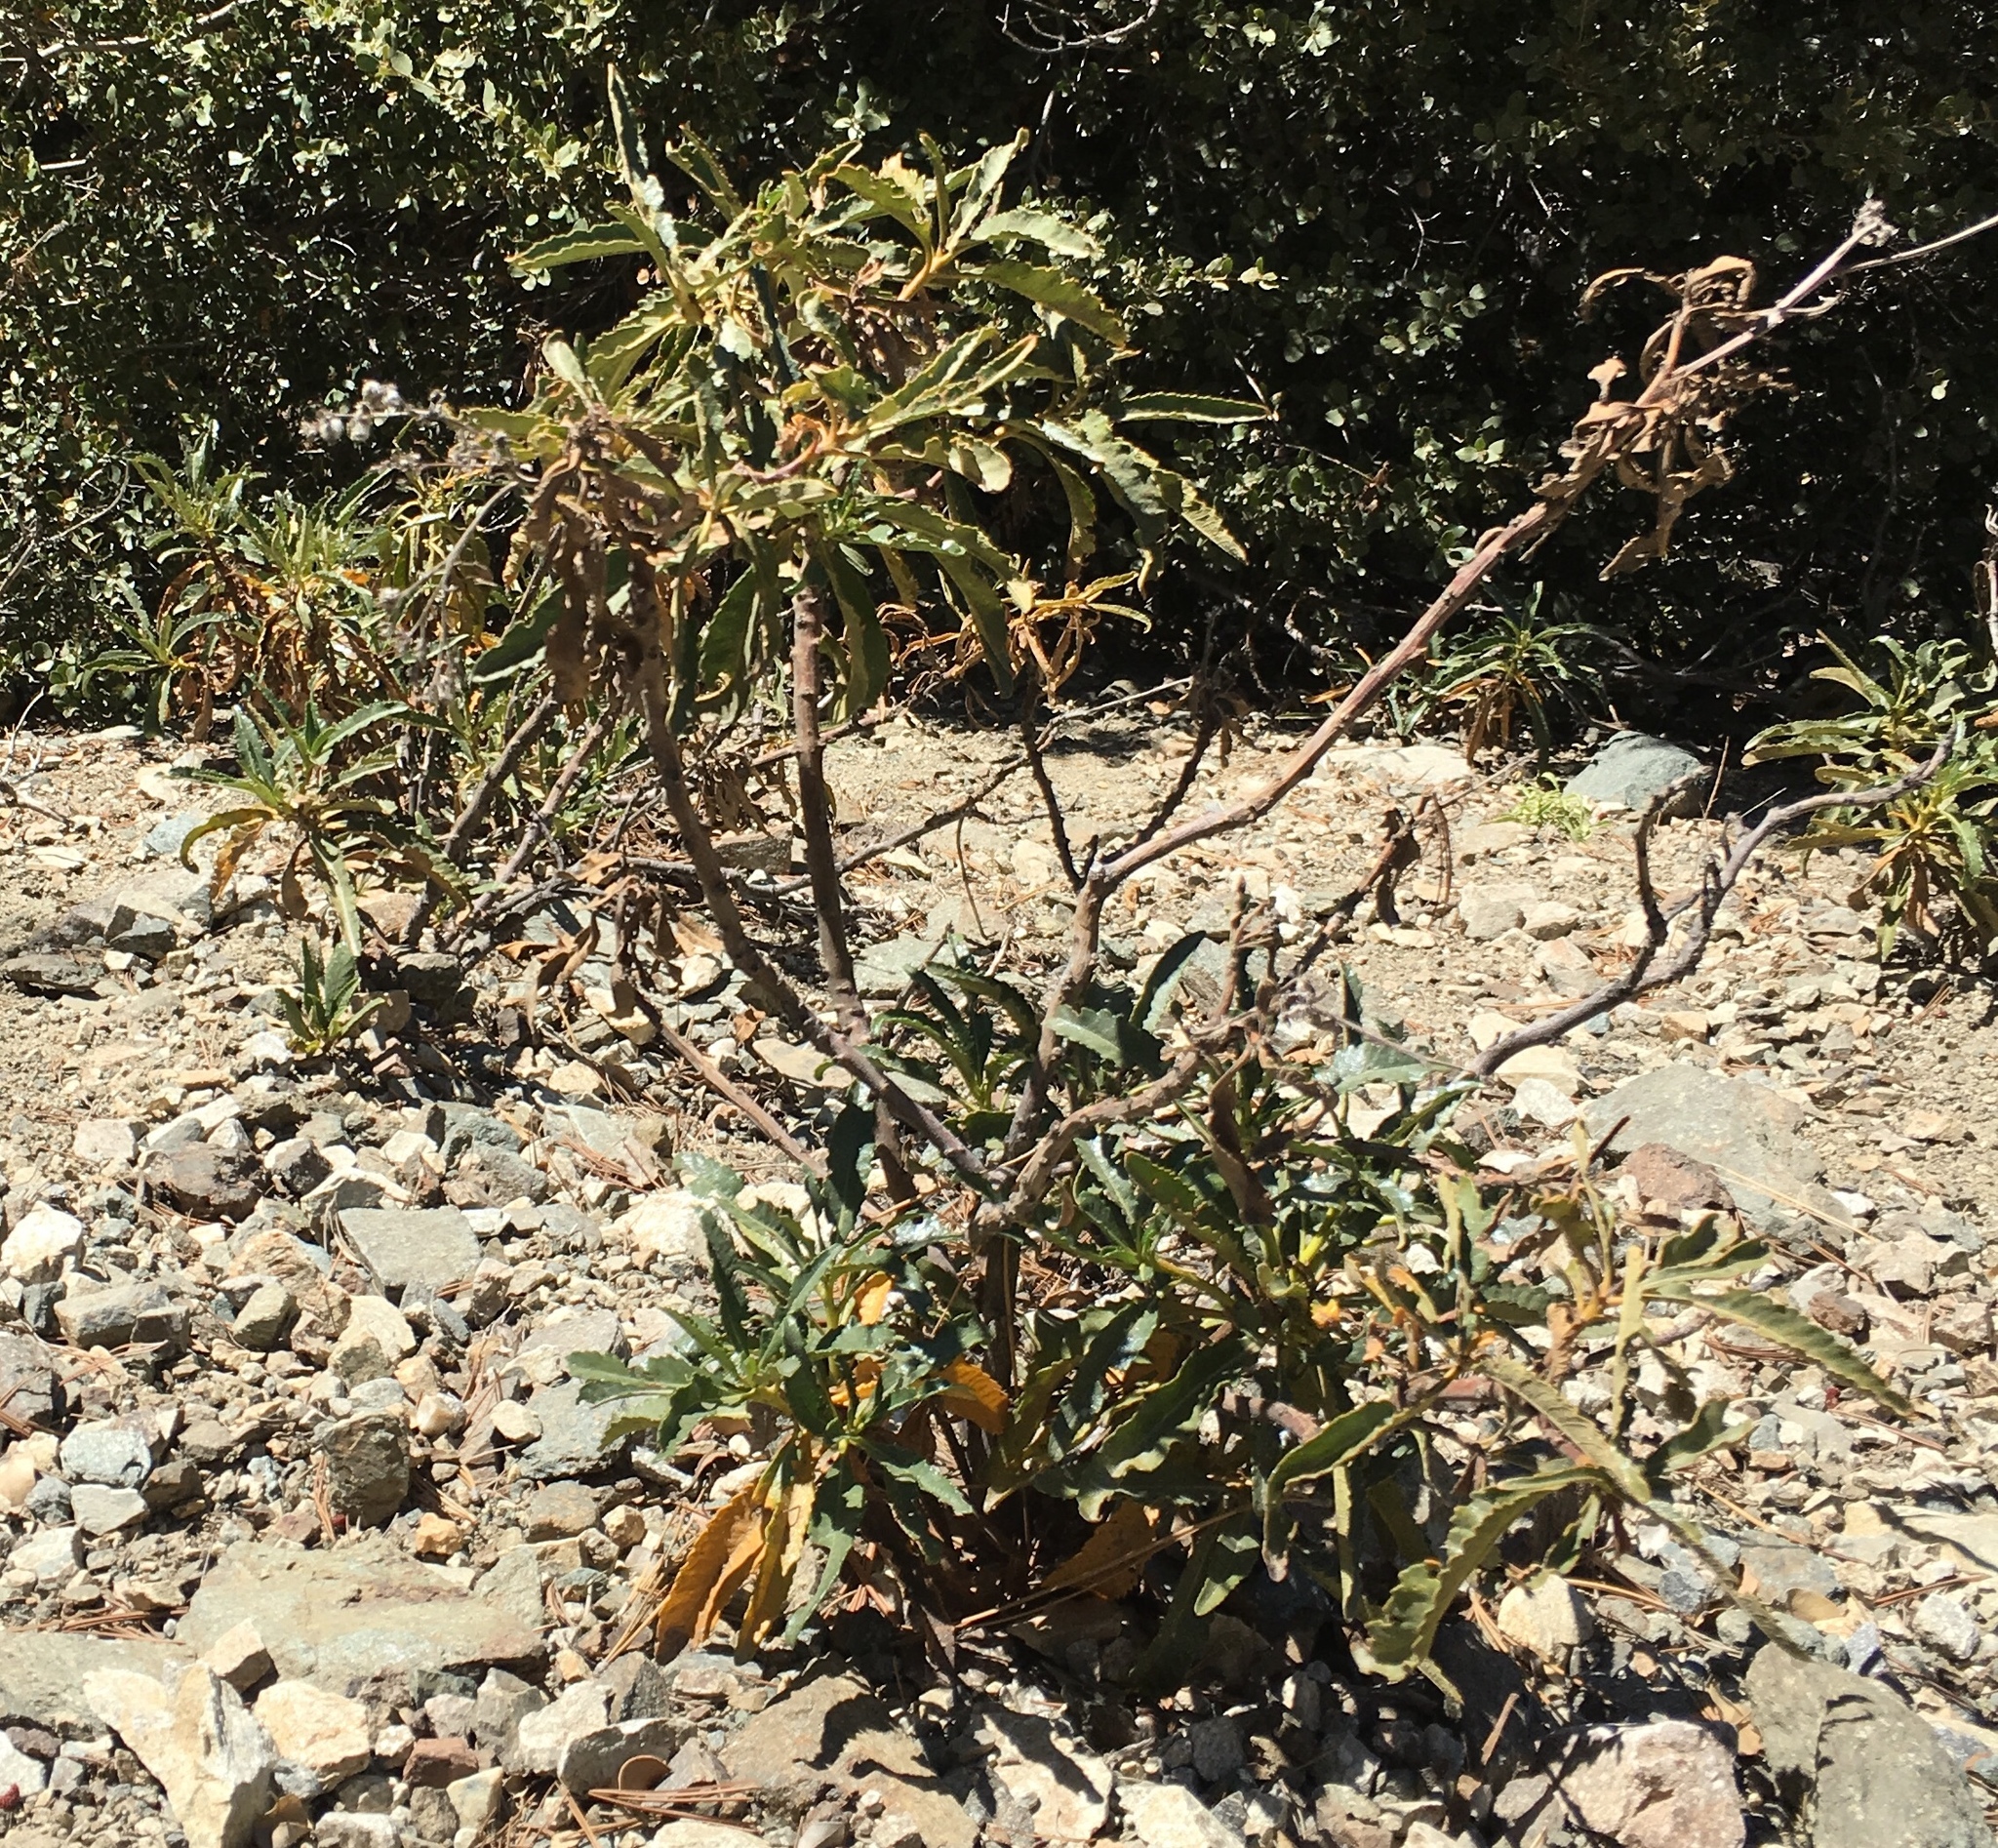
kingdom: Plantae
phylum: Tracheophyta
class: Magnoliopsida
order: Boraginales
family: Namaceae
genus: Eriodictyon
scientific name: Eriodictyon trichocalyx
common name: Hairy yerba-santa
